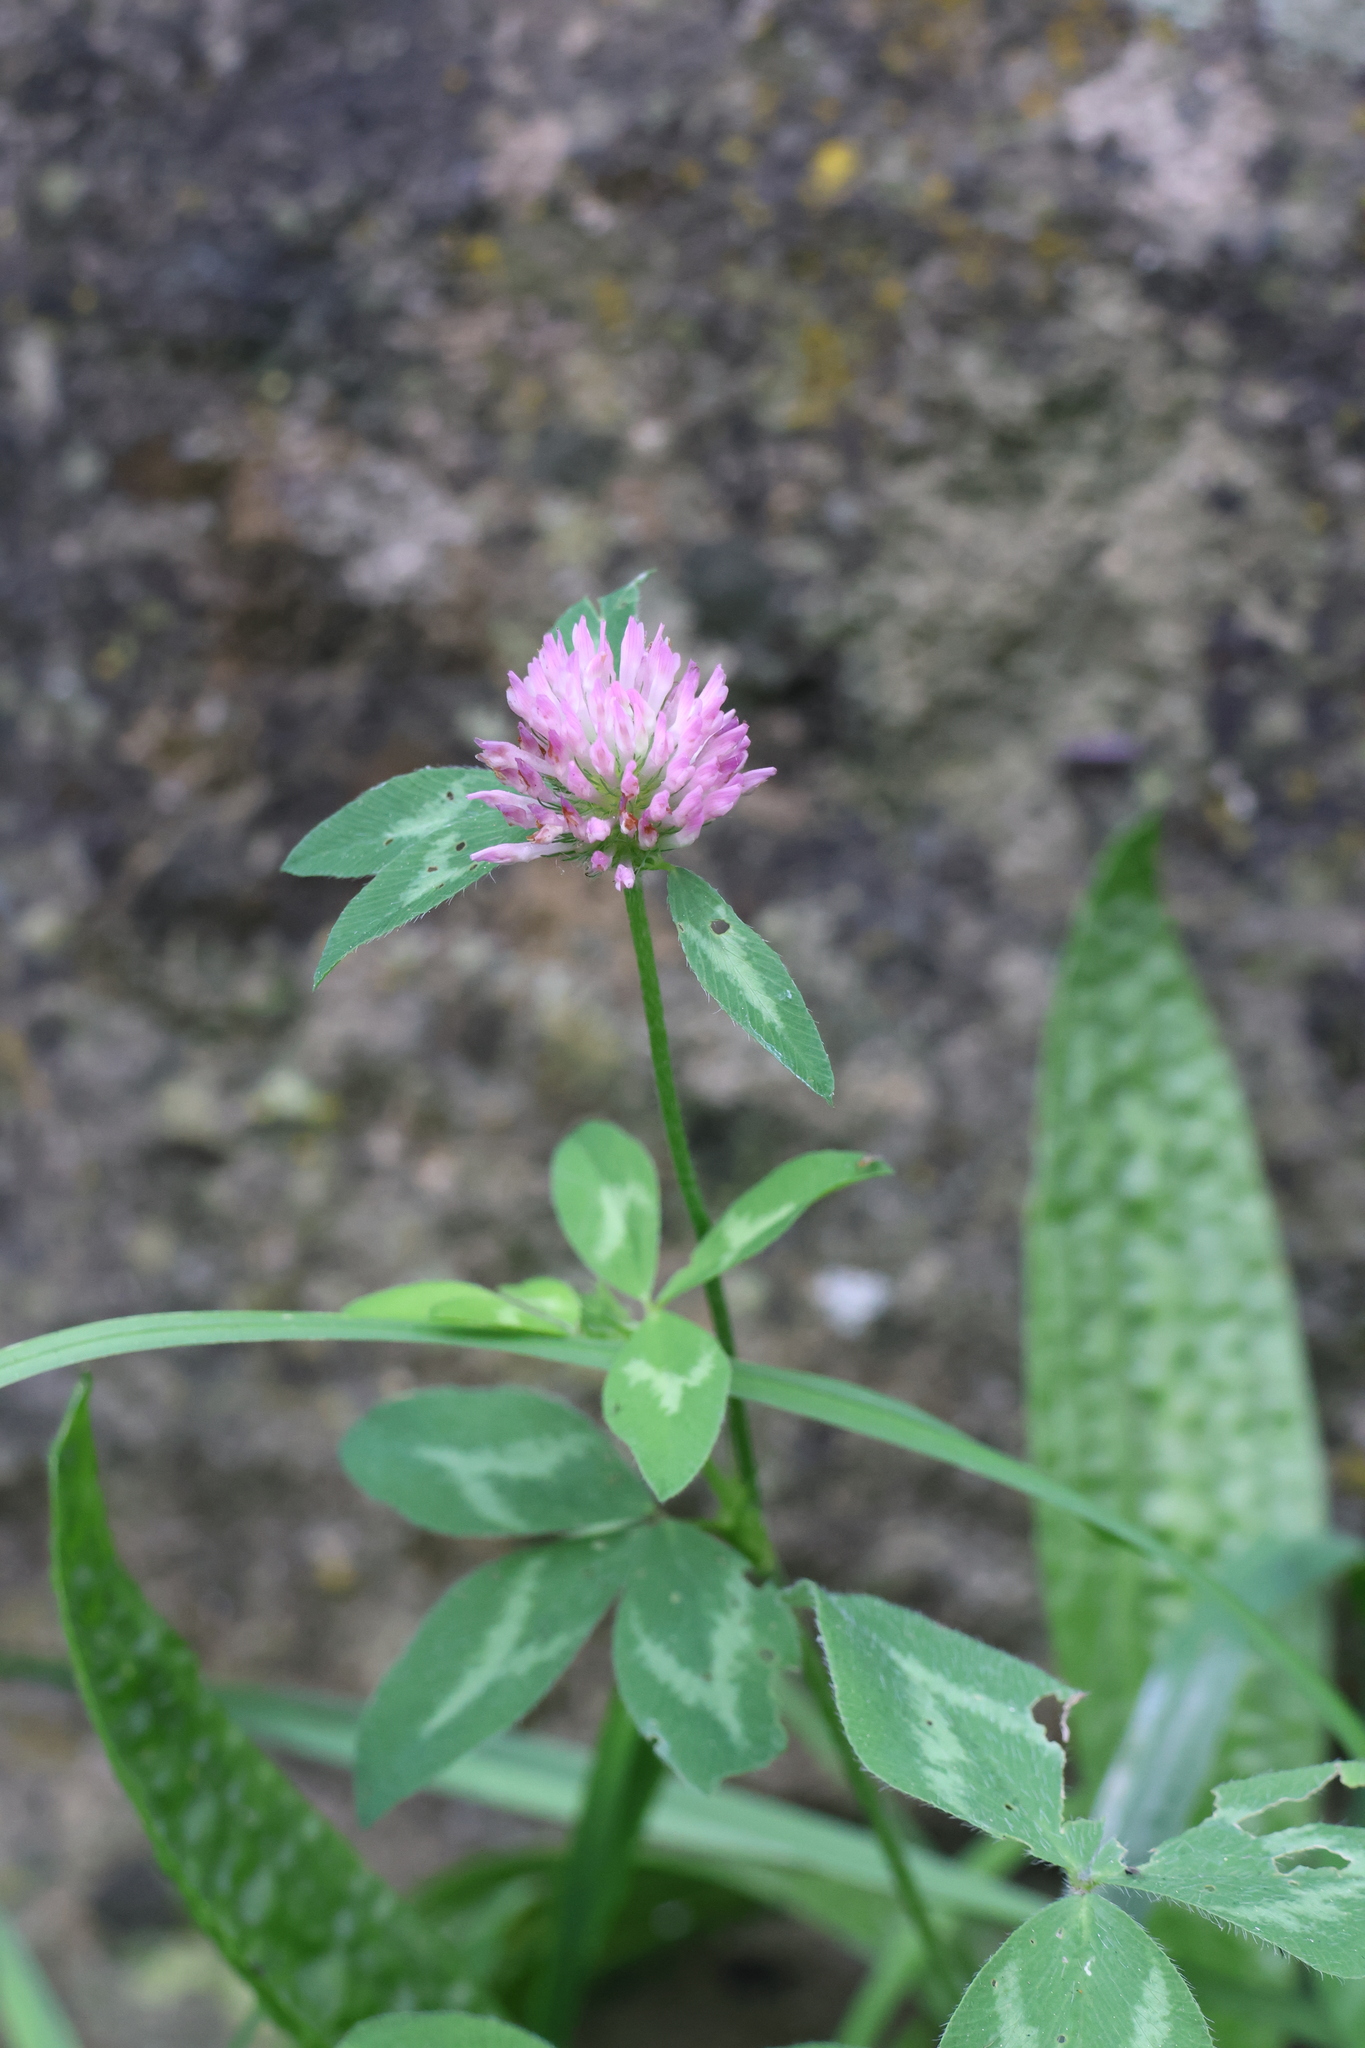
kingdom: Plantae
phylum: Tracheophyta
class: Magnoliopsida
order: Fabales
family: Fabaceae
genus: Trifolium
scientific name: Trifolium pratense
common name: Red clover
